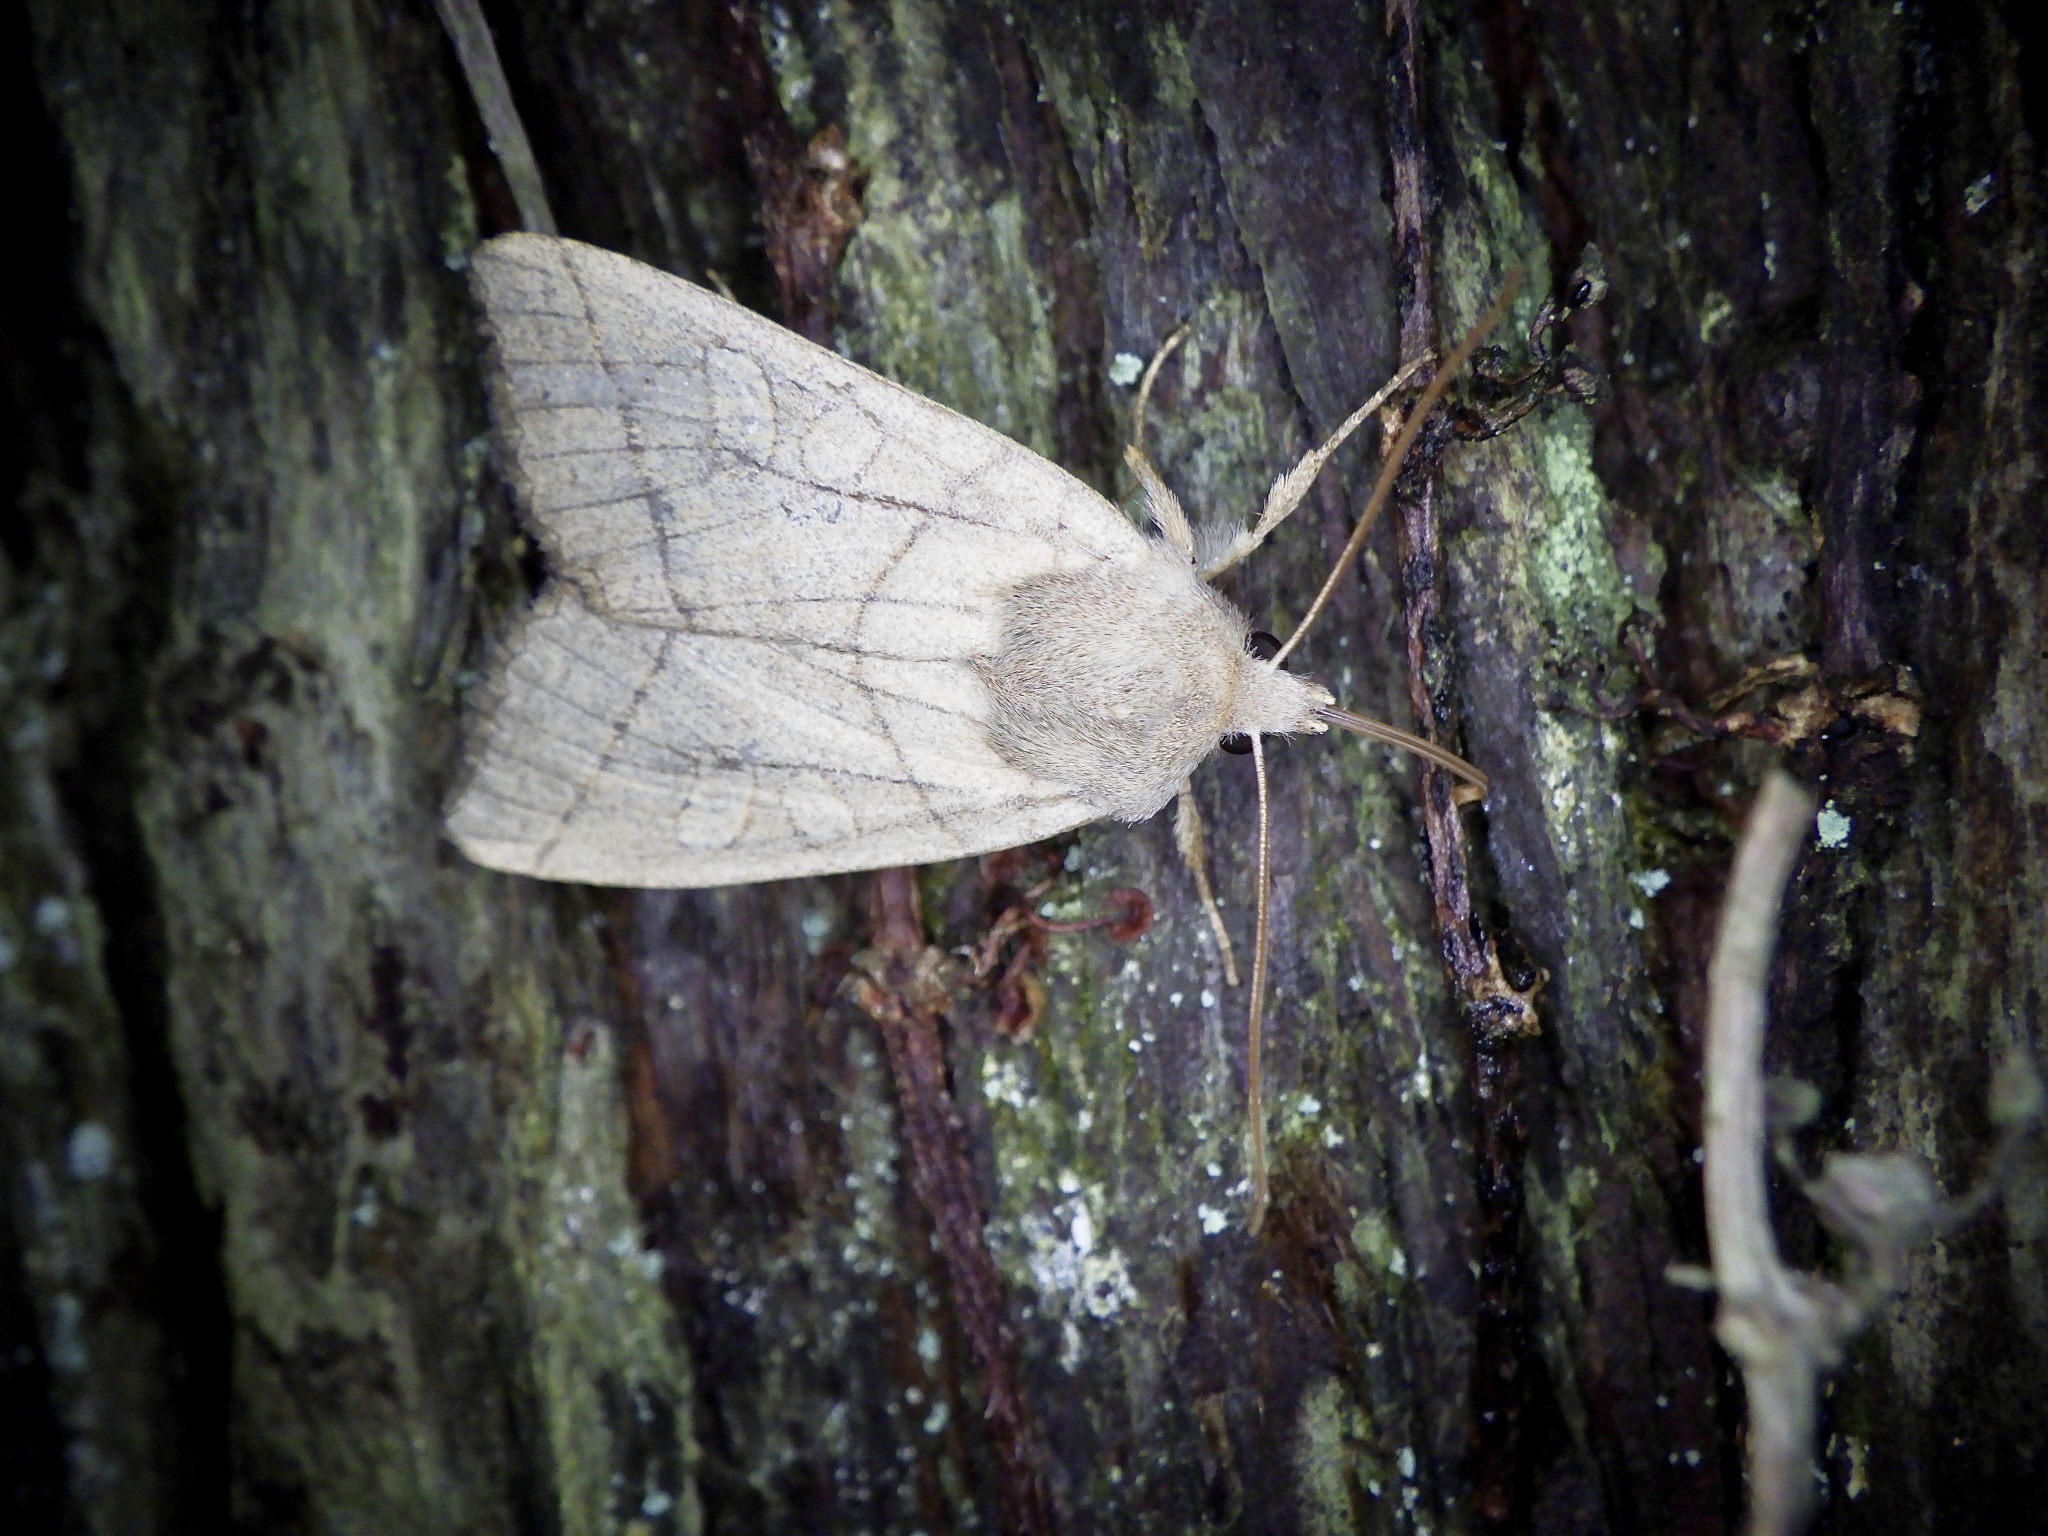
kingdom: Animalia
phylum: Arthropoda
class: Insecta
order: Lepidoptera
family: Noctuidae
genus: Telorta
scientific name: Telorta divergens
